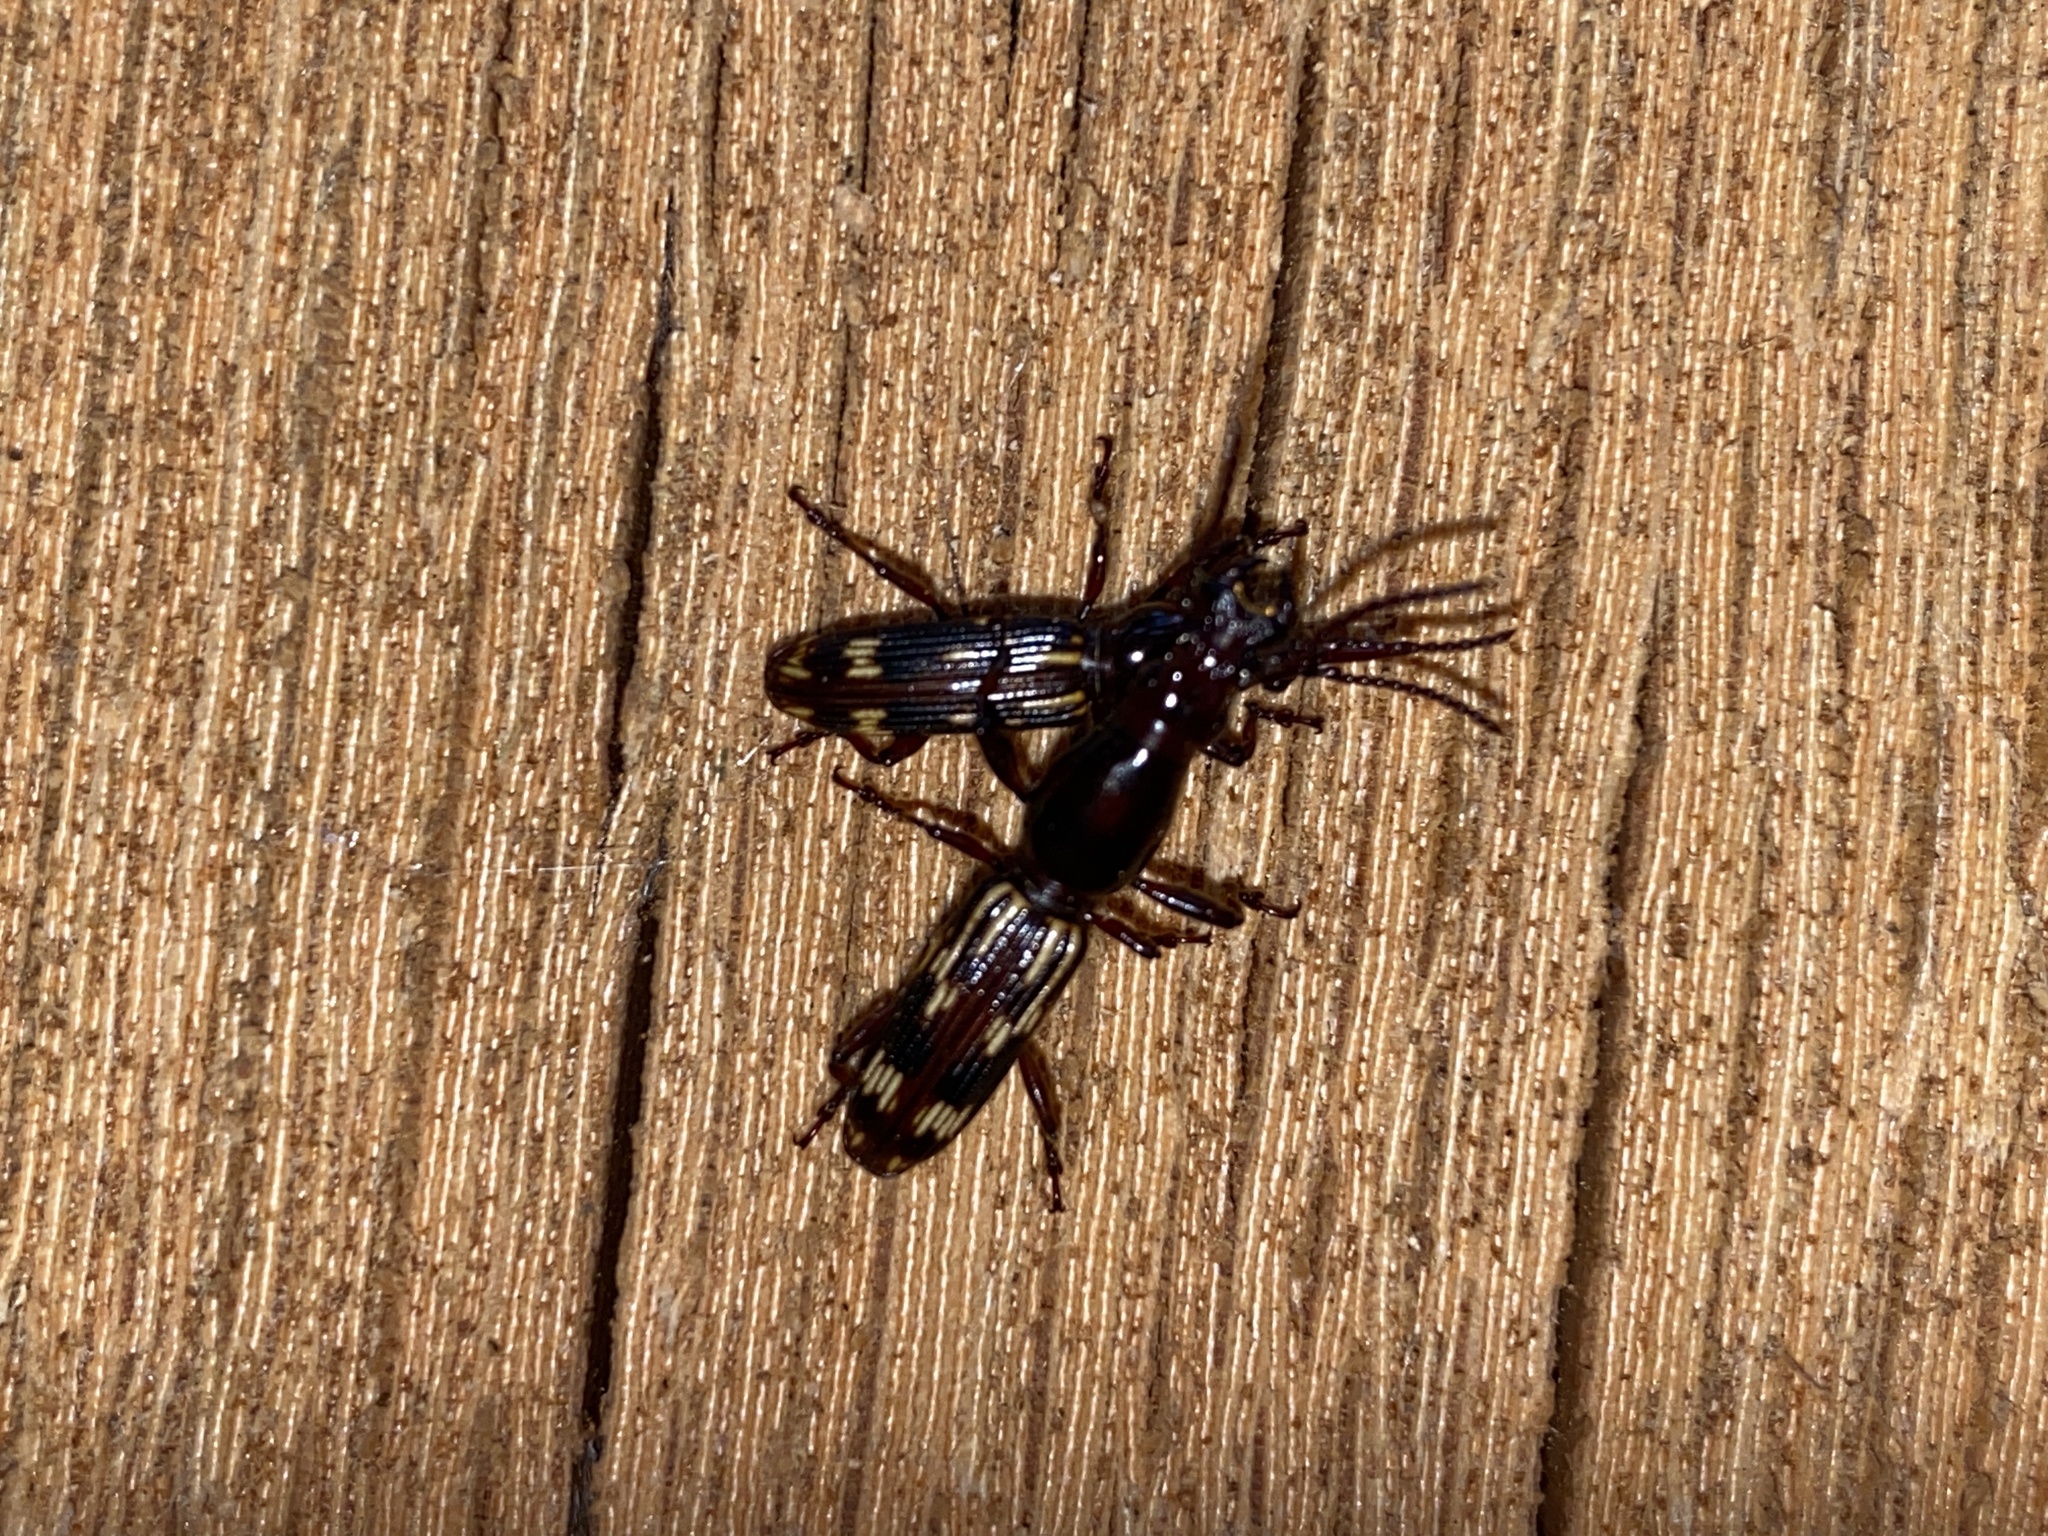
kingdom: Animalia
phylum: Arthropoda
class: Insecta
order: Coleoptera
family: Brentidae
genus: Arrenodes
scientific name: Arrenodes minutus
